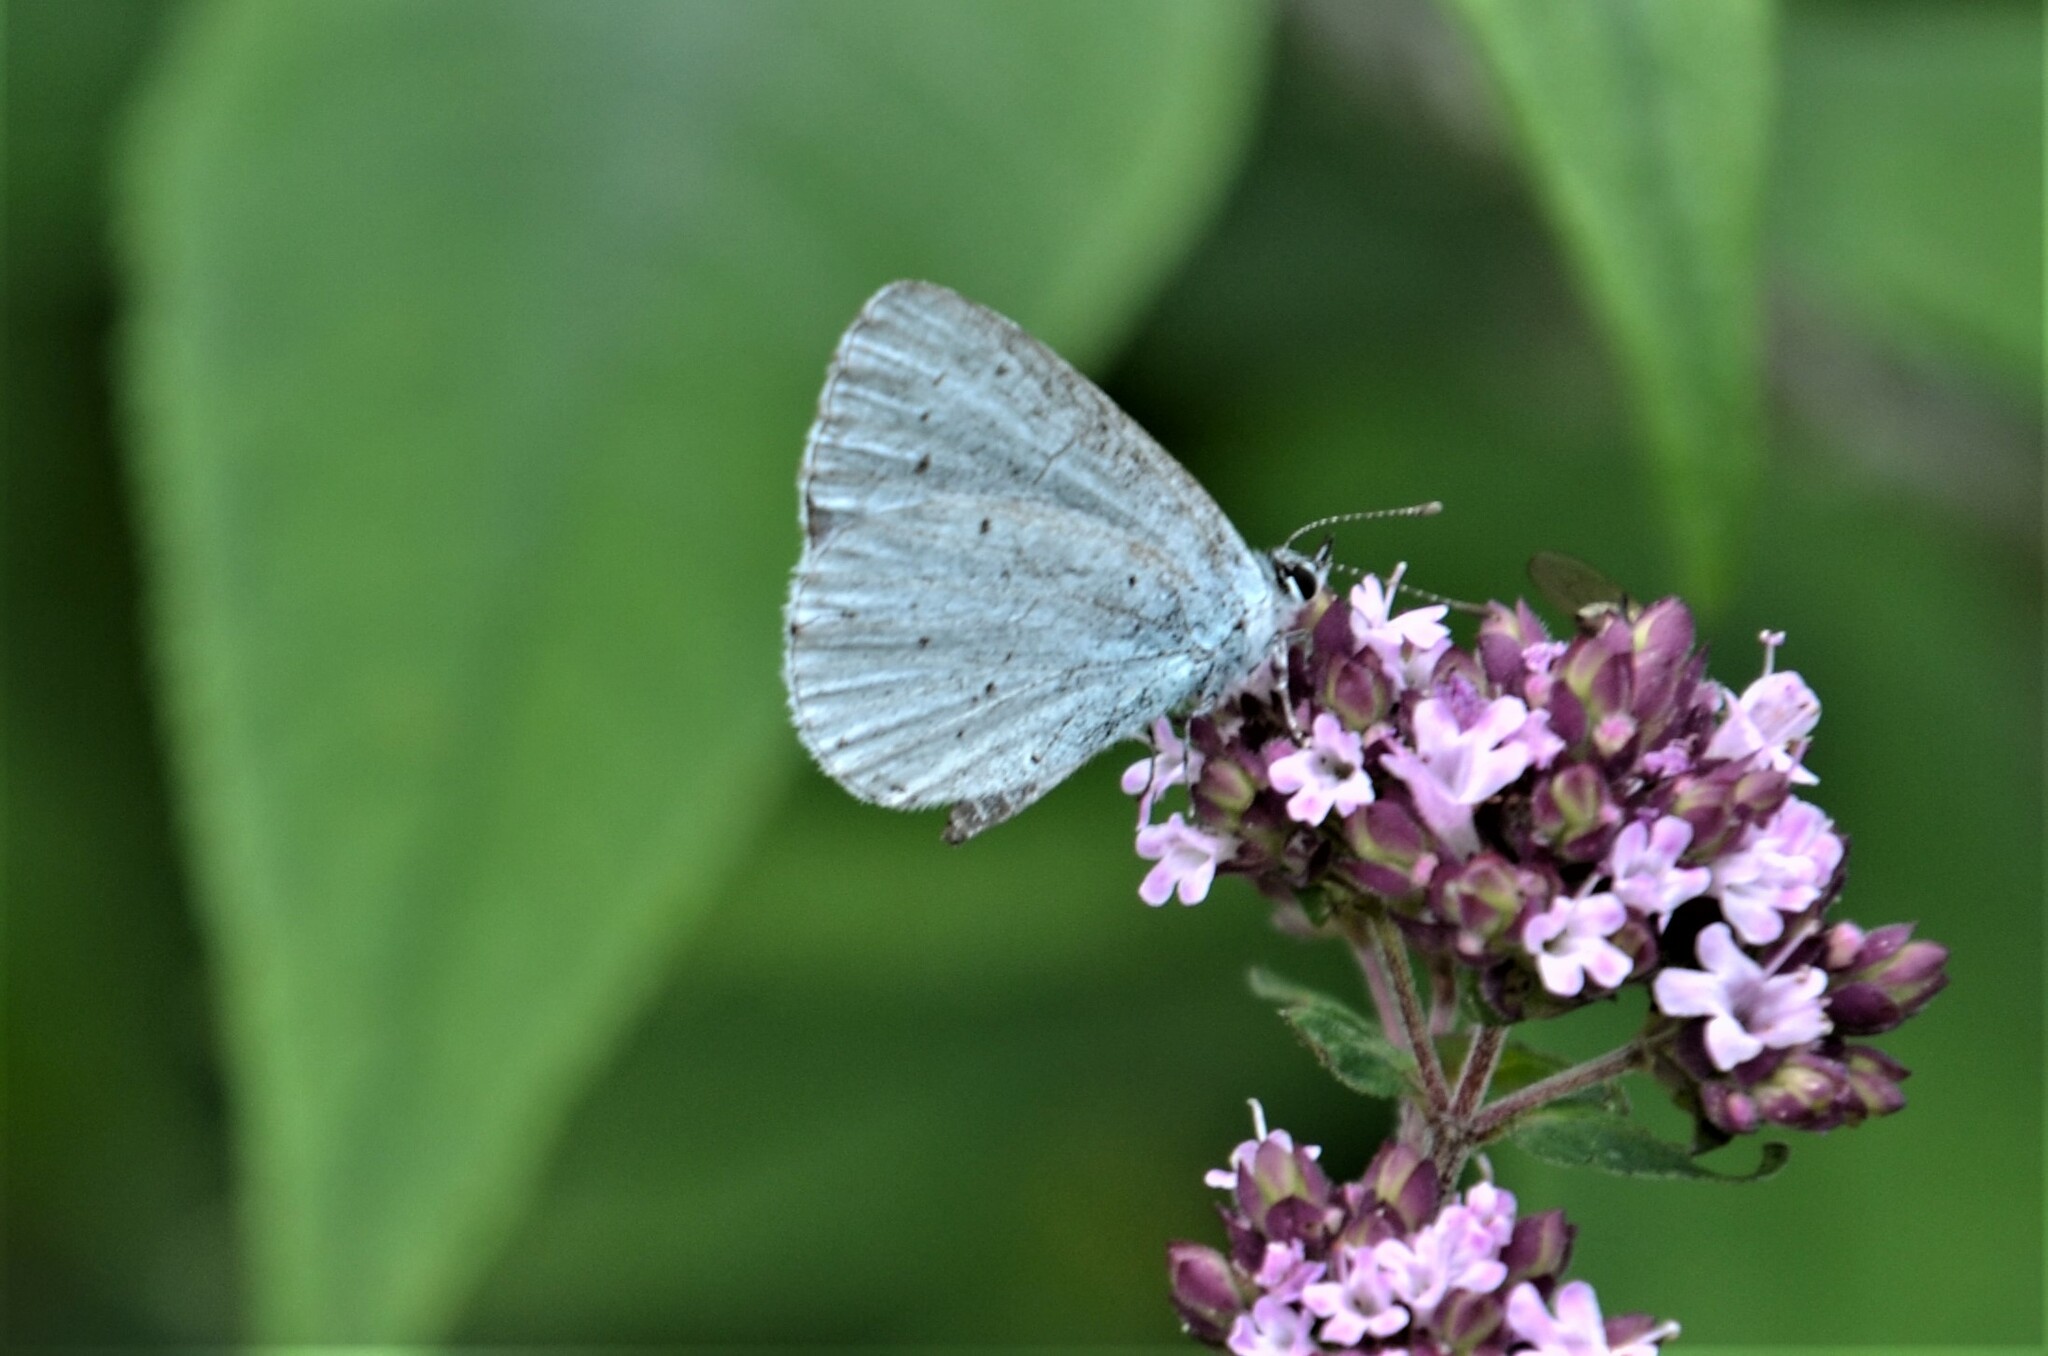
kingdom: Animalia
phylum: Arthropoda
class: Insecta
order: Lepidoptera
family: Lycaenidae
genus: Celastrina
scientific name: Celastrina argiolus
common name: Holly blue
